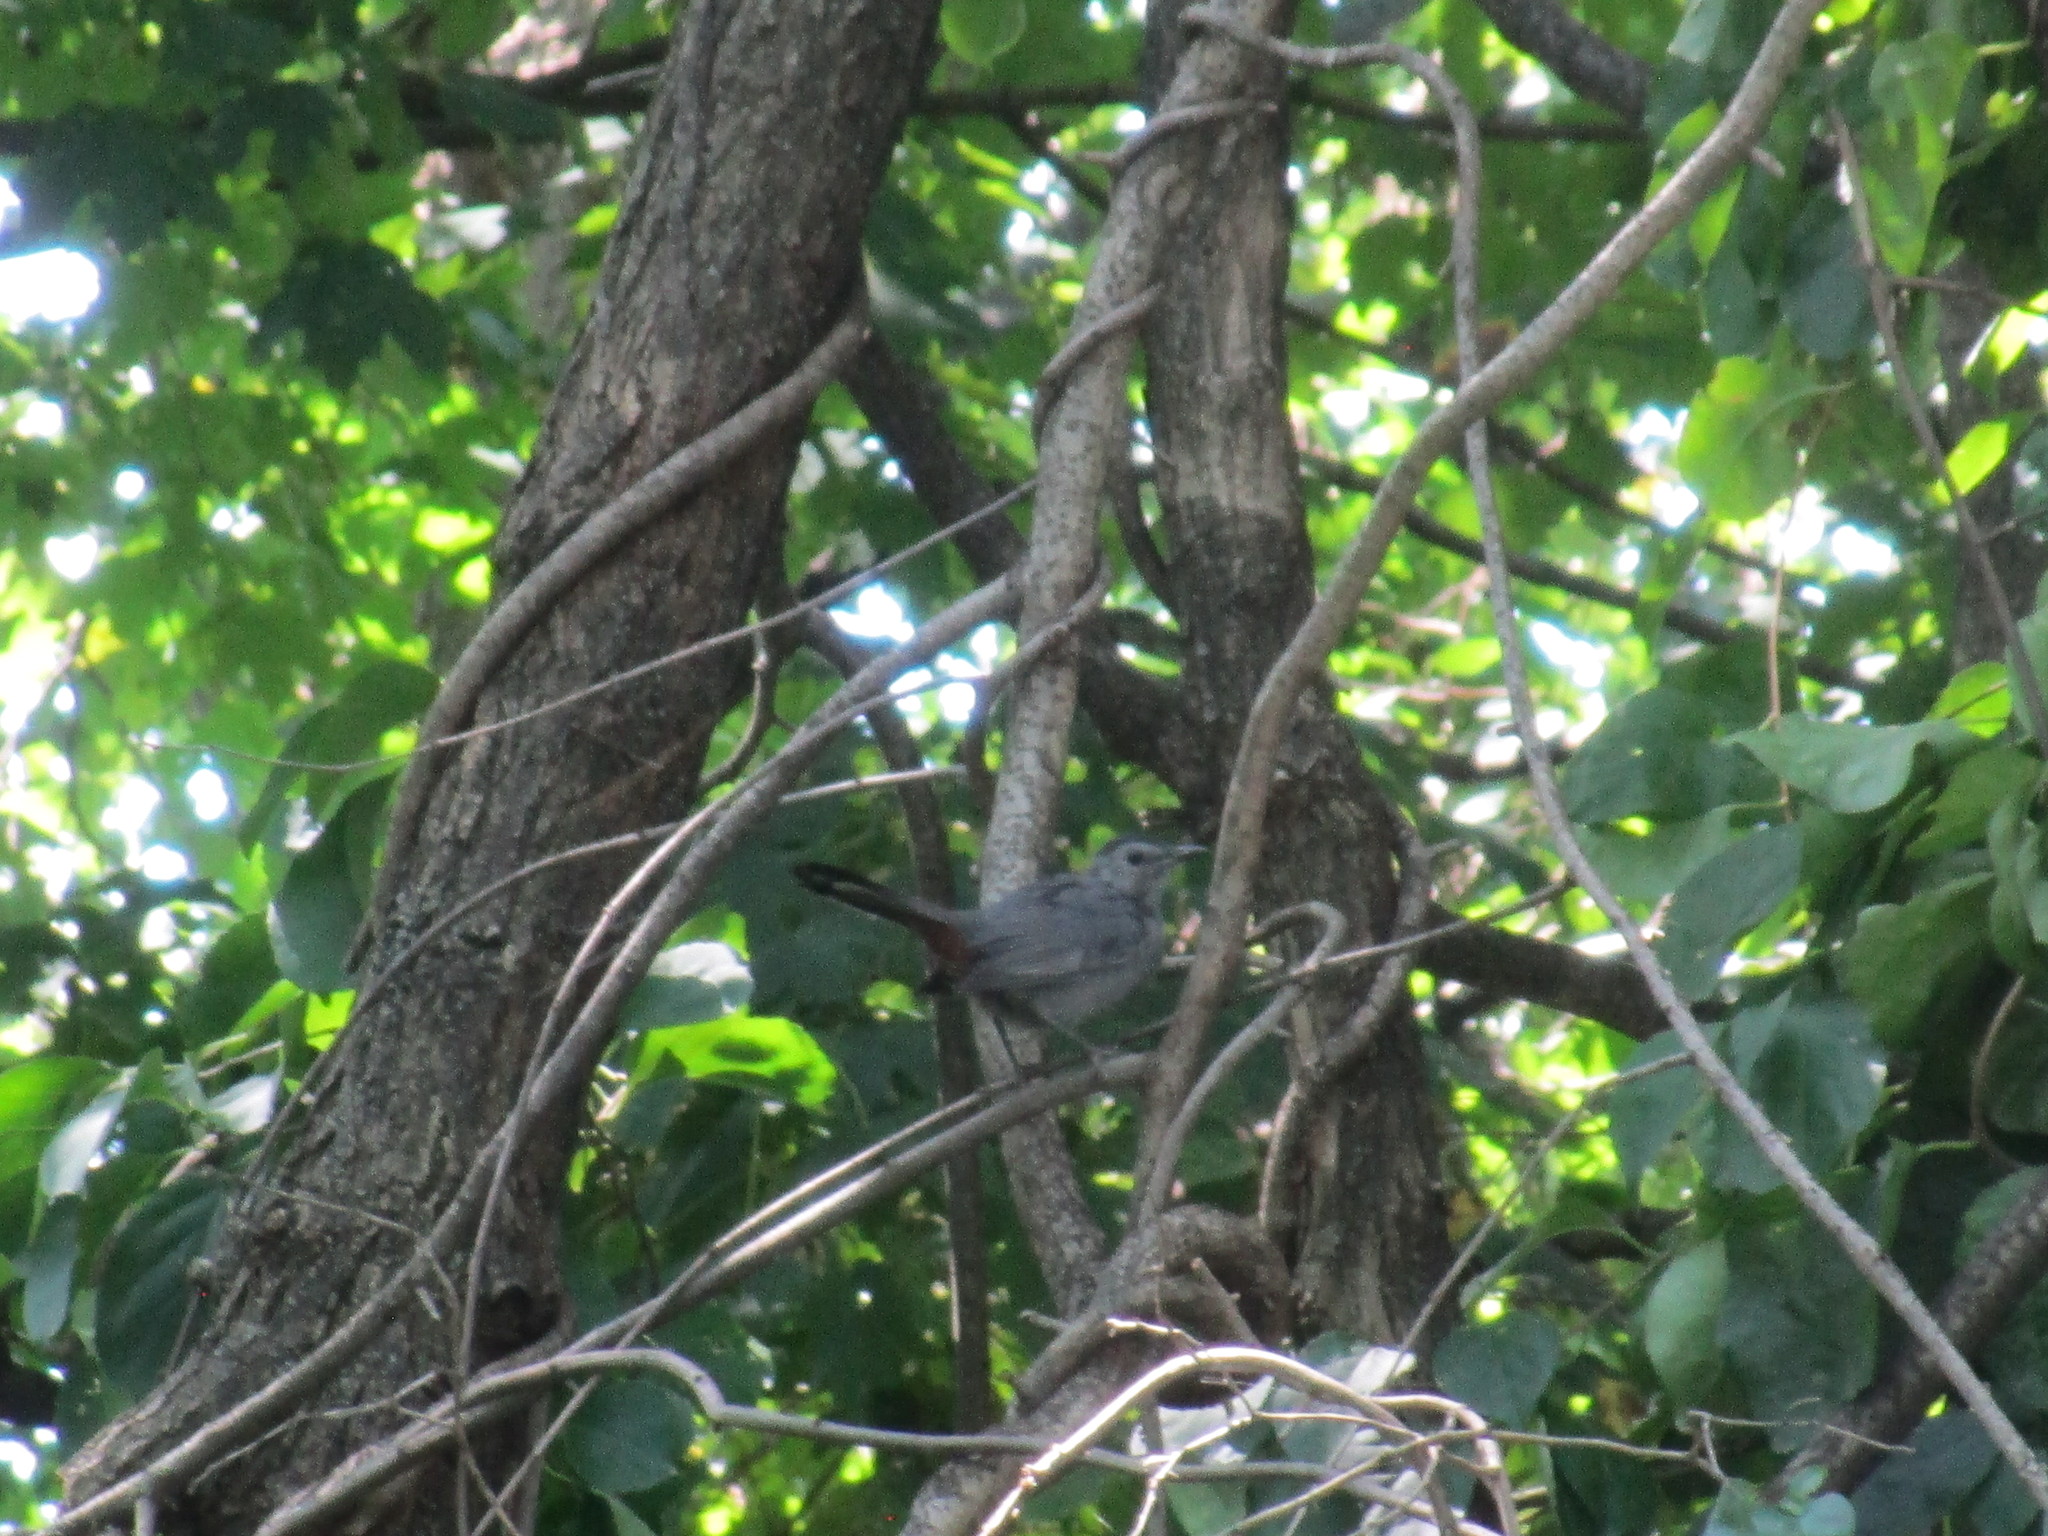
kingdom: Animalia
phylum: Chordata
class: Aves
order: Passeriformes
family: Mimidae
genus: Dumetella
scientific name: Dumetella carolinensis
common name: Gray catbird
